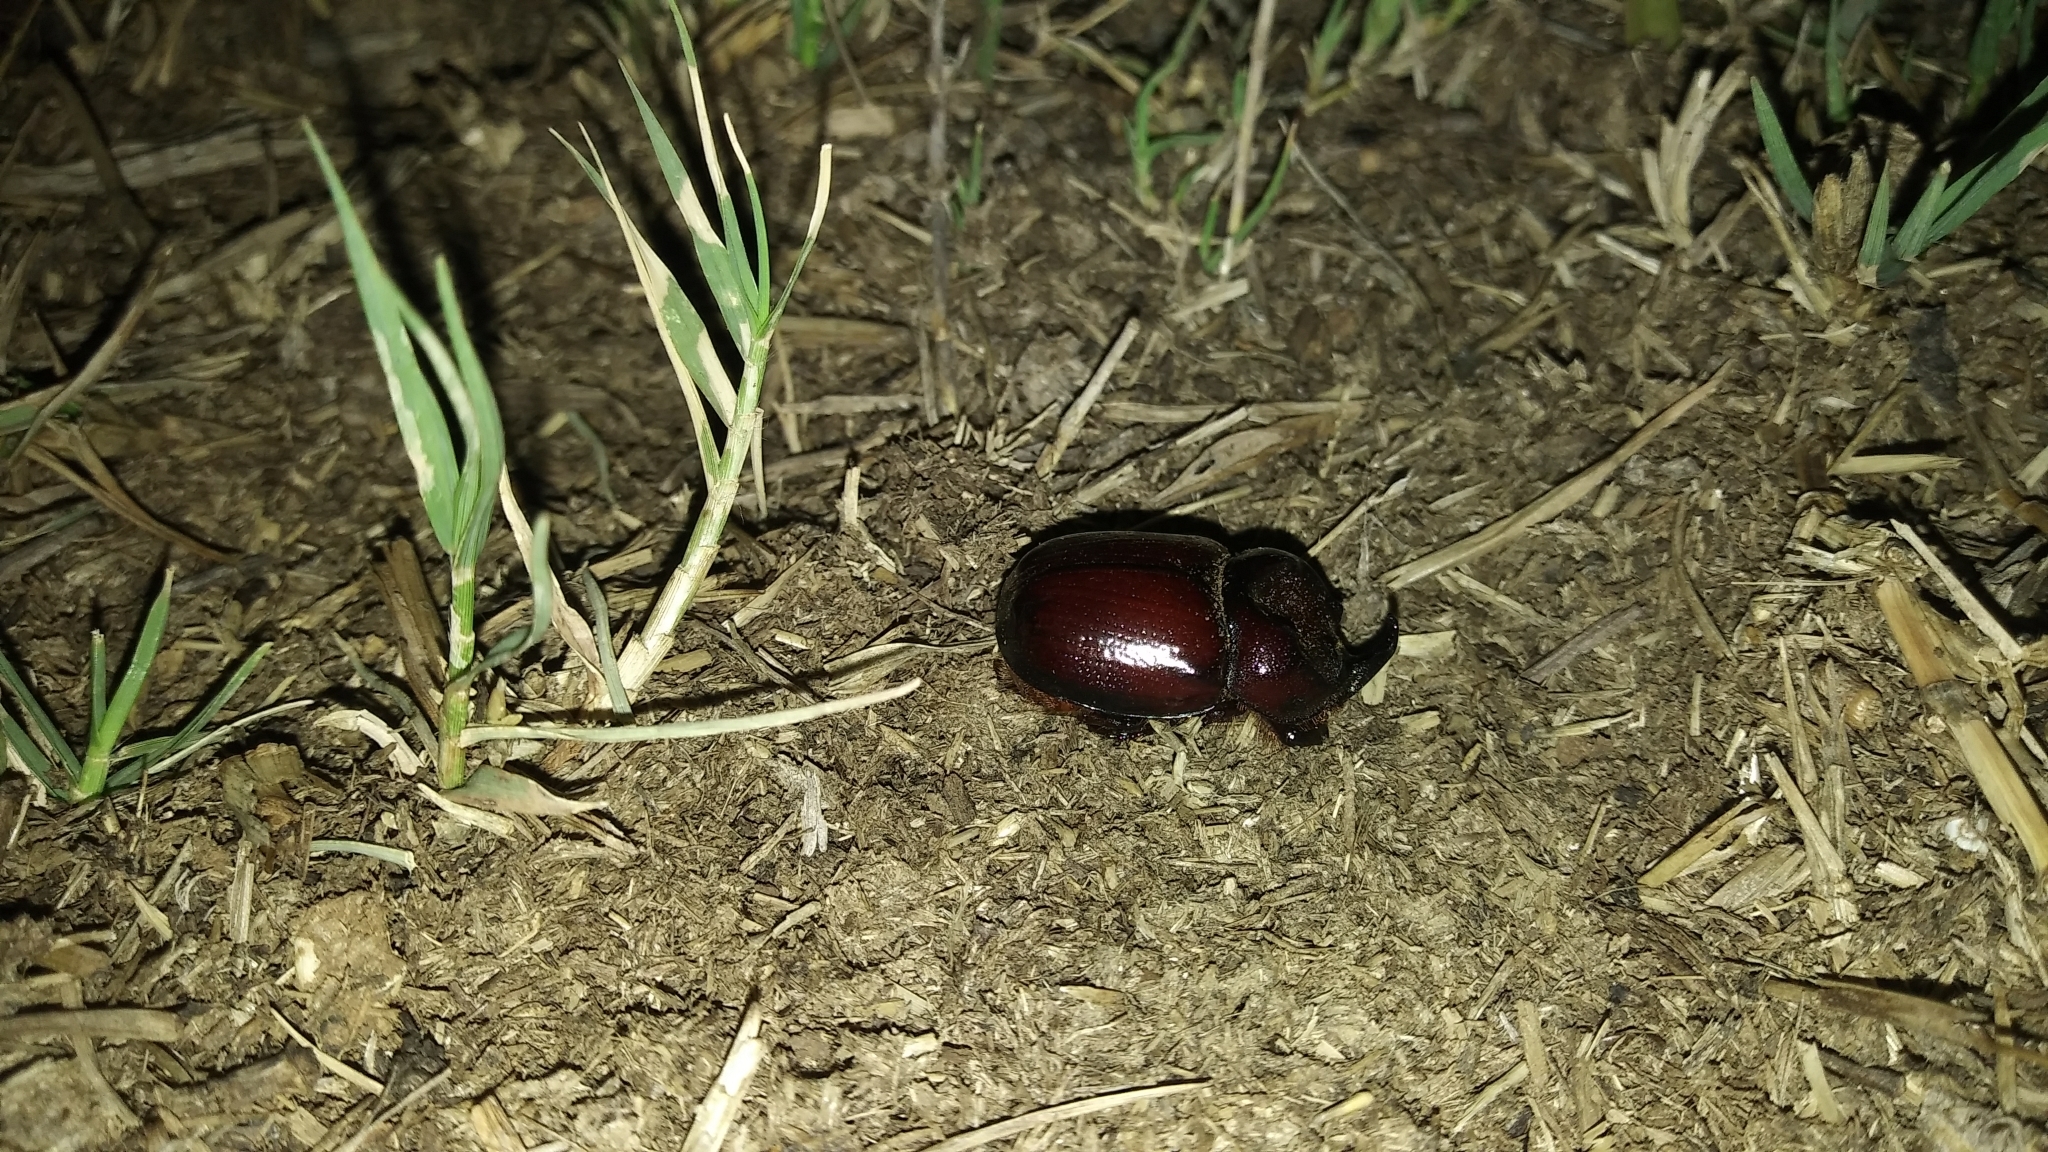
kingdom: Animalia
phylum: Arthropoda
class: Insecta
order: Coleoptera
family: Scarabaeidae
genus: Phyllognathus
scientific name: Phyllognathus dionysius
